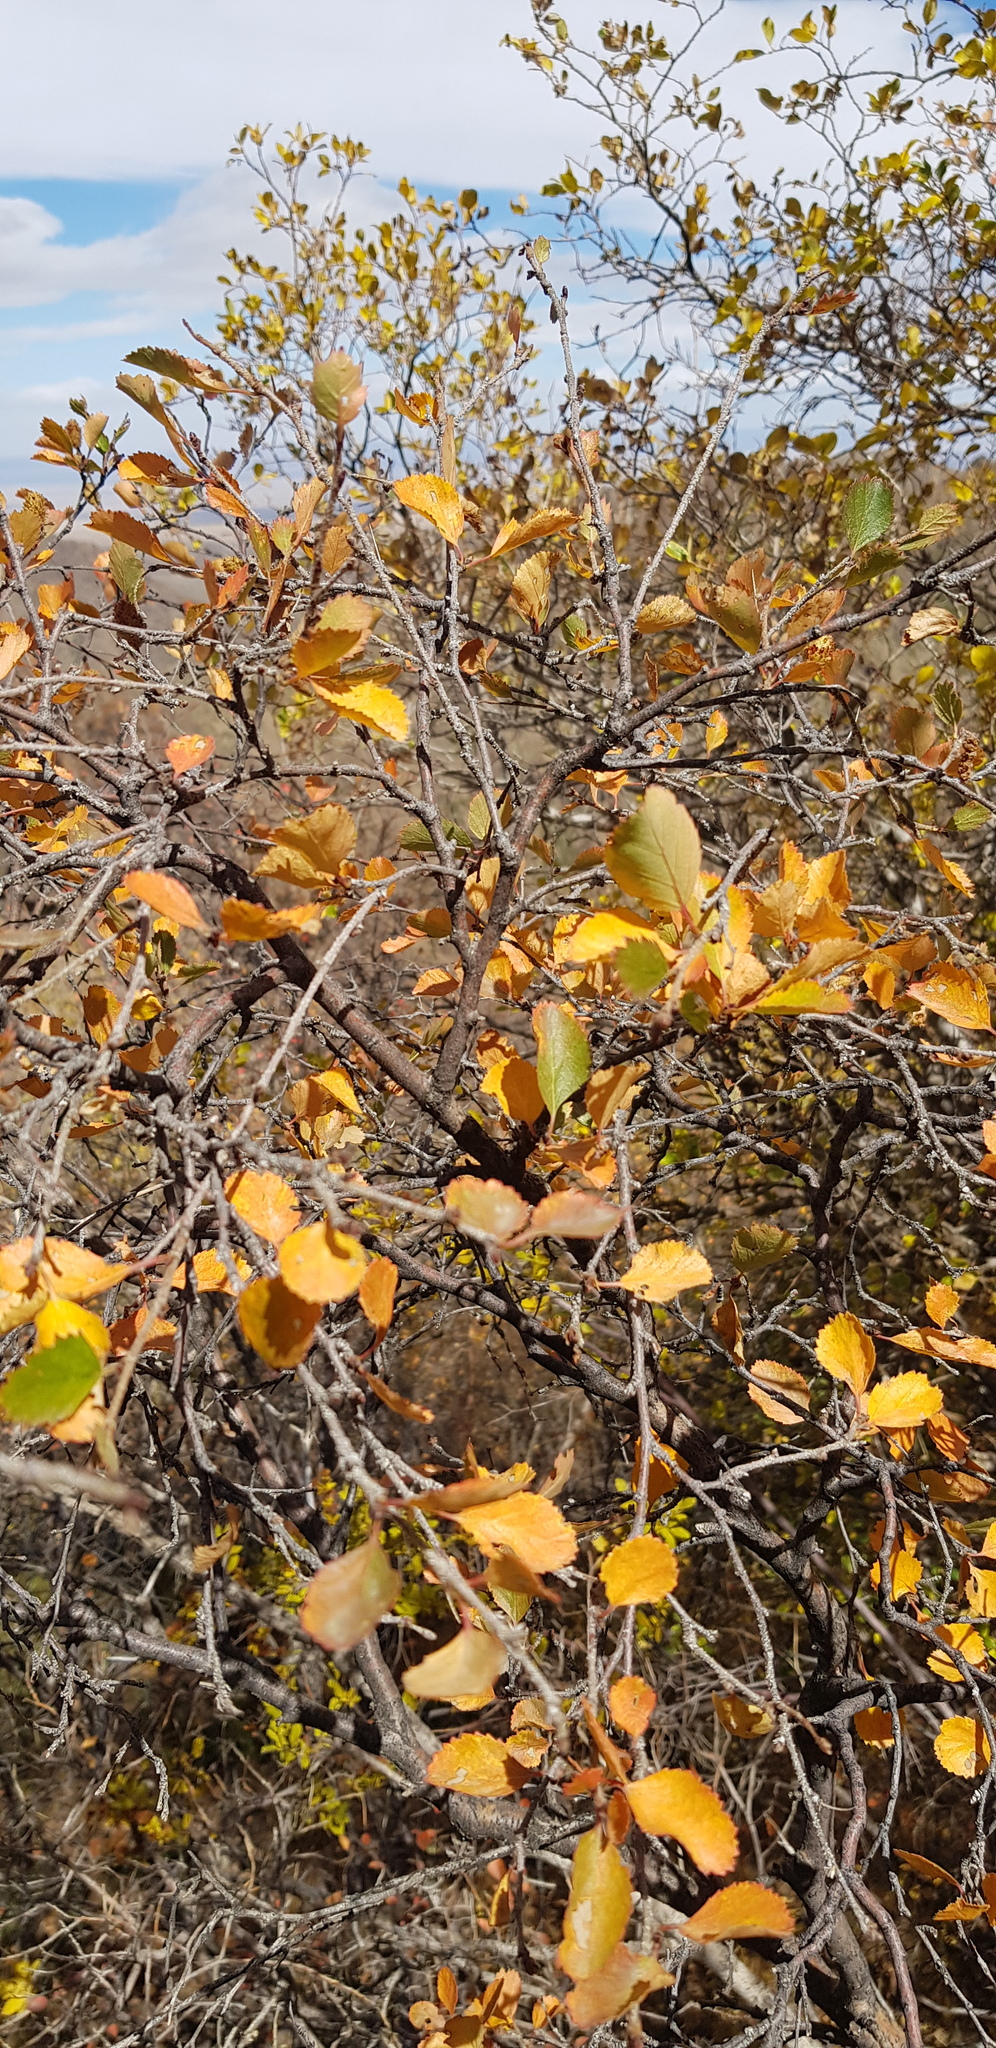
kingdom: Plantae
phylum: Tracheophyta
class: Magnoliopsida
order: Fagales
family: Betulaceae
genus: Betula
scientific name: Betula glandulosa
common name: Dwarf birch
